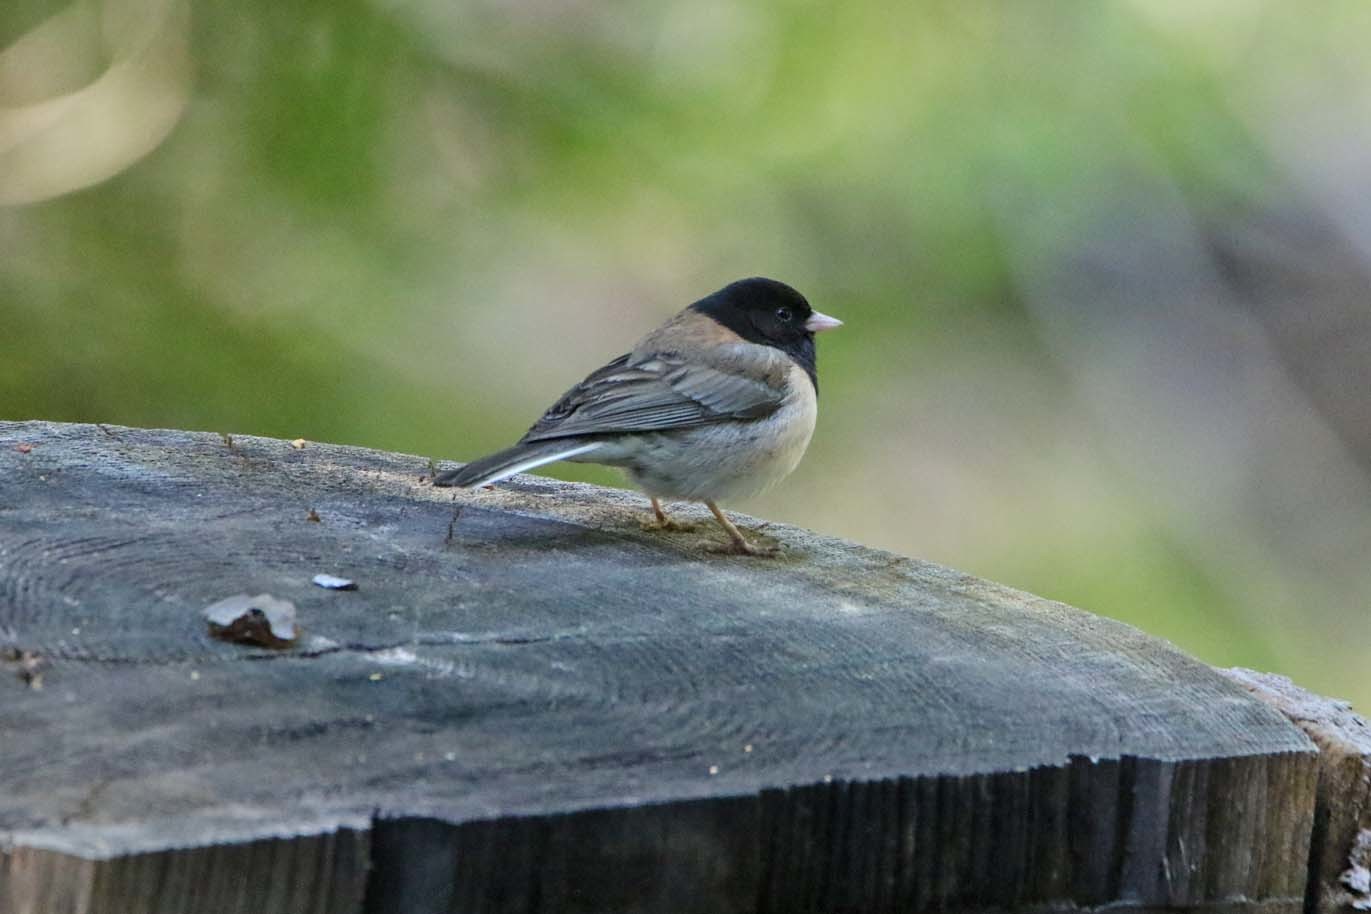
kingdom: Animalia
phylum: Chordata
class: Aves
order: Passeriformes
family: Passerellidae
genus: Junco
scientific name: Junco hyemalis
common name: Dark-eyed junco
